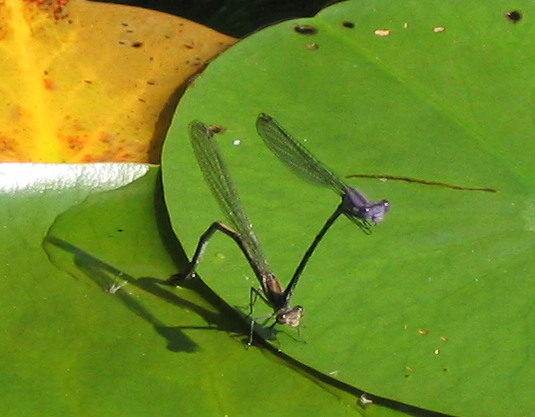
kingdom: Animalia
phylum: Arthropoda
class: Insecta
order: Odonata
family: Coenagrionidae
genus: Argia
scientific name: Argia fumipennis
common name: Variable dancer
